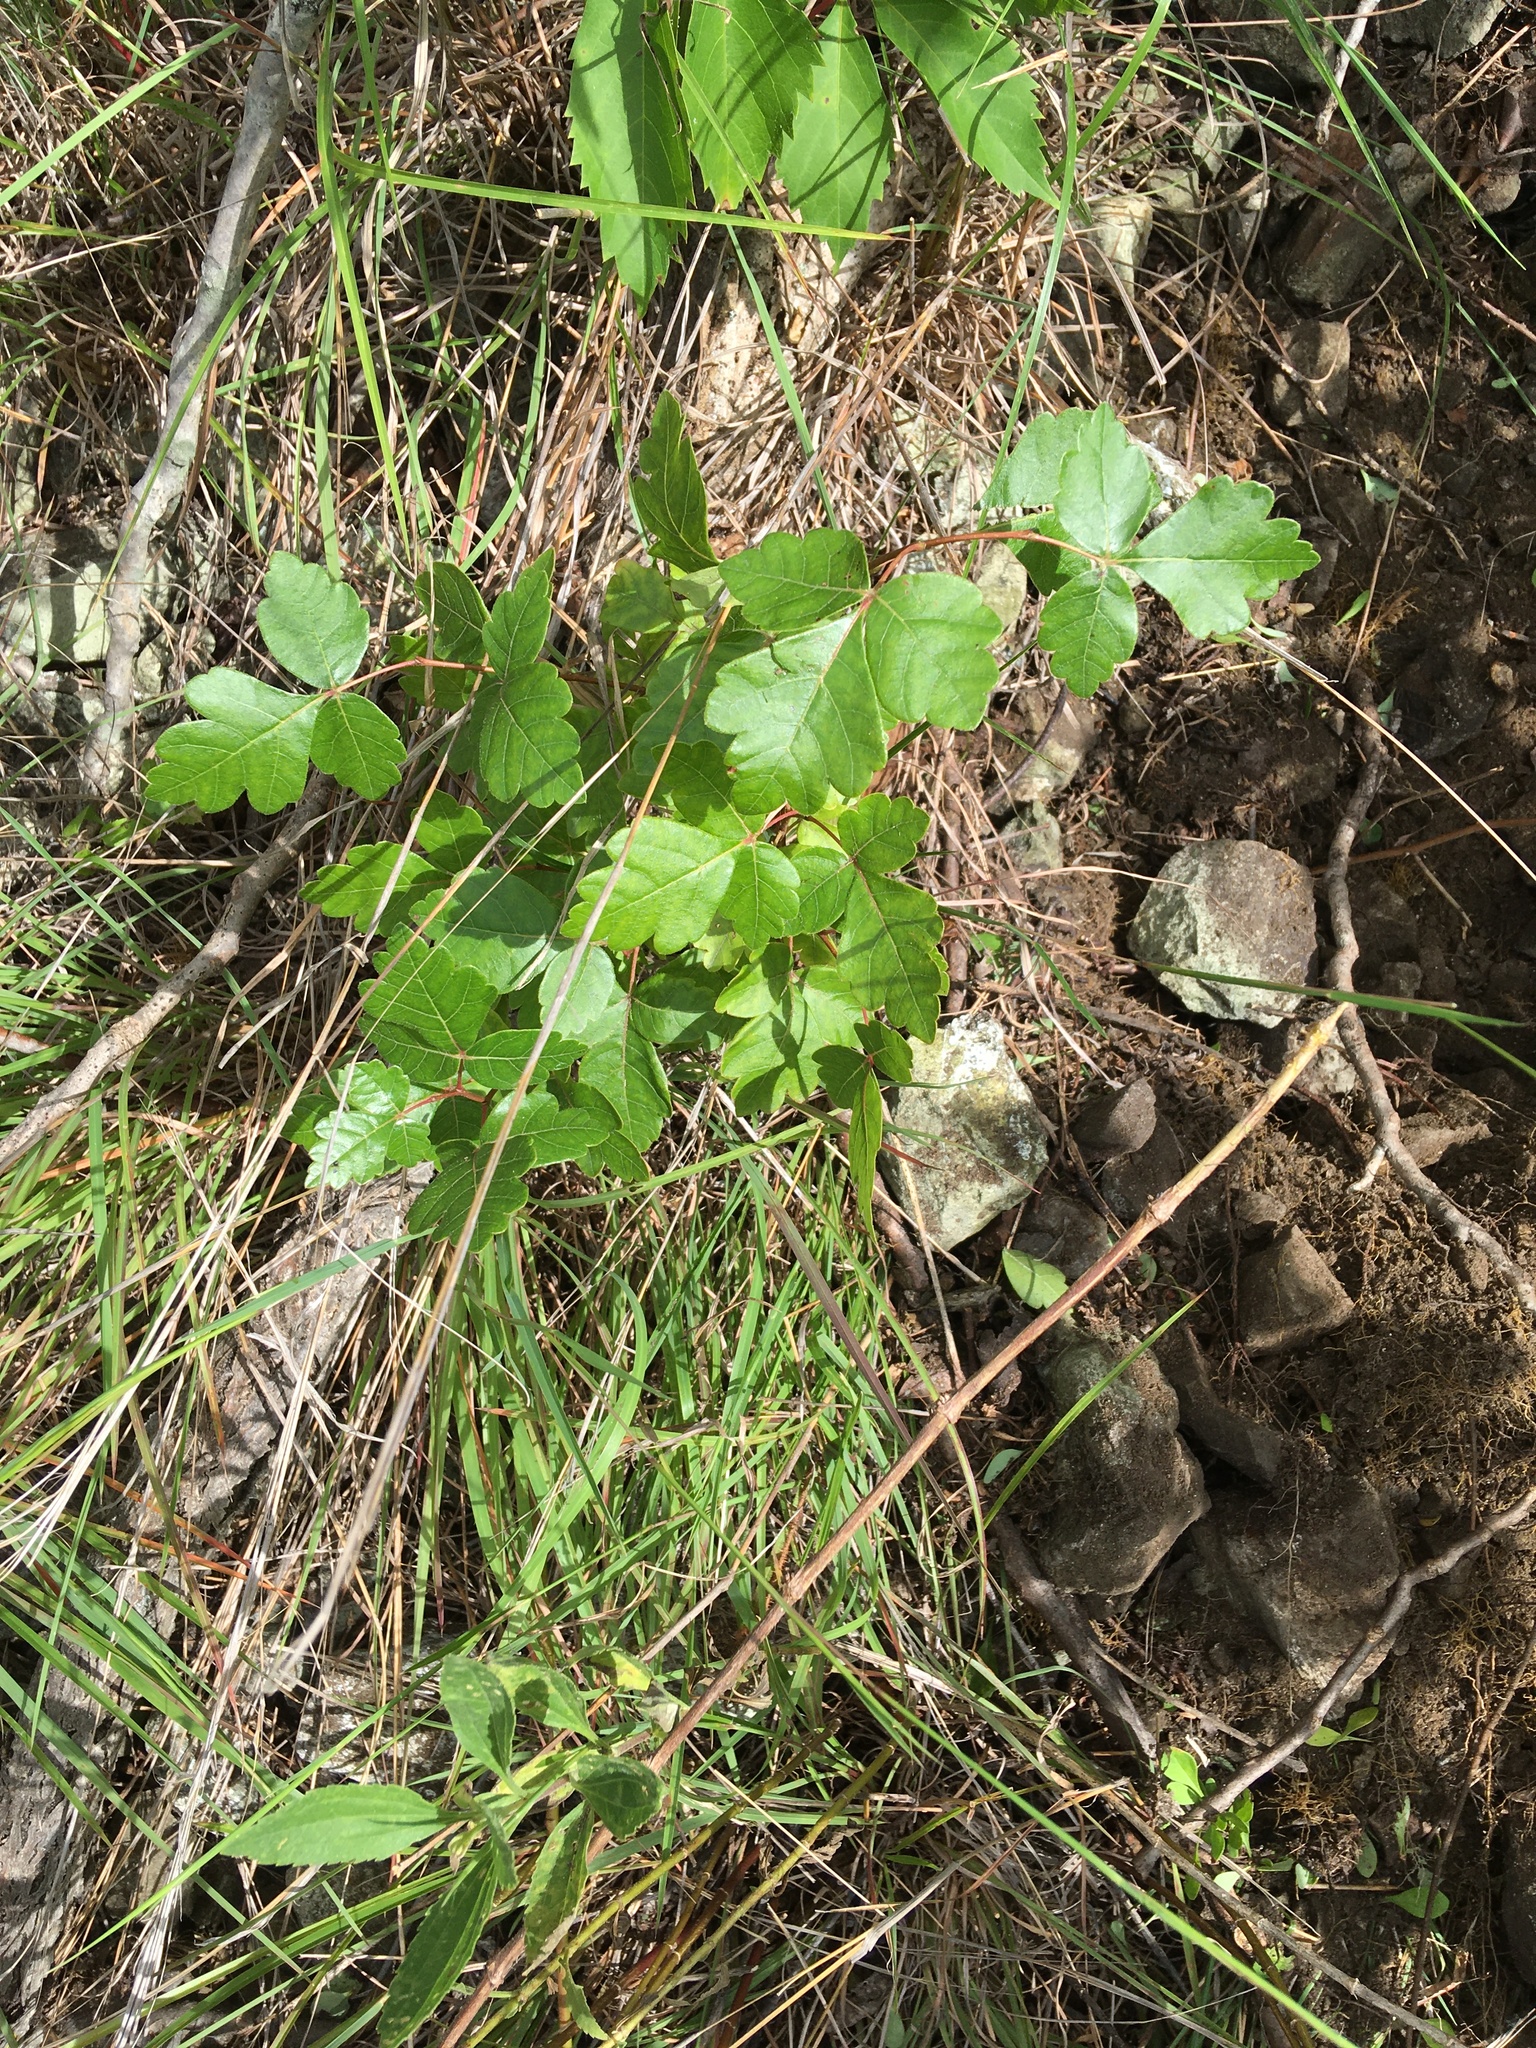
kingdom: Plantae
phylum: Tracheophyta
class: Magnoliopsida
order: Sapindales
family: Anacardiaceae
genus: Rhus
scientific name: Rhus aromatica
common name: Aromatic sumac
